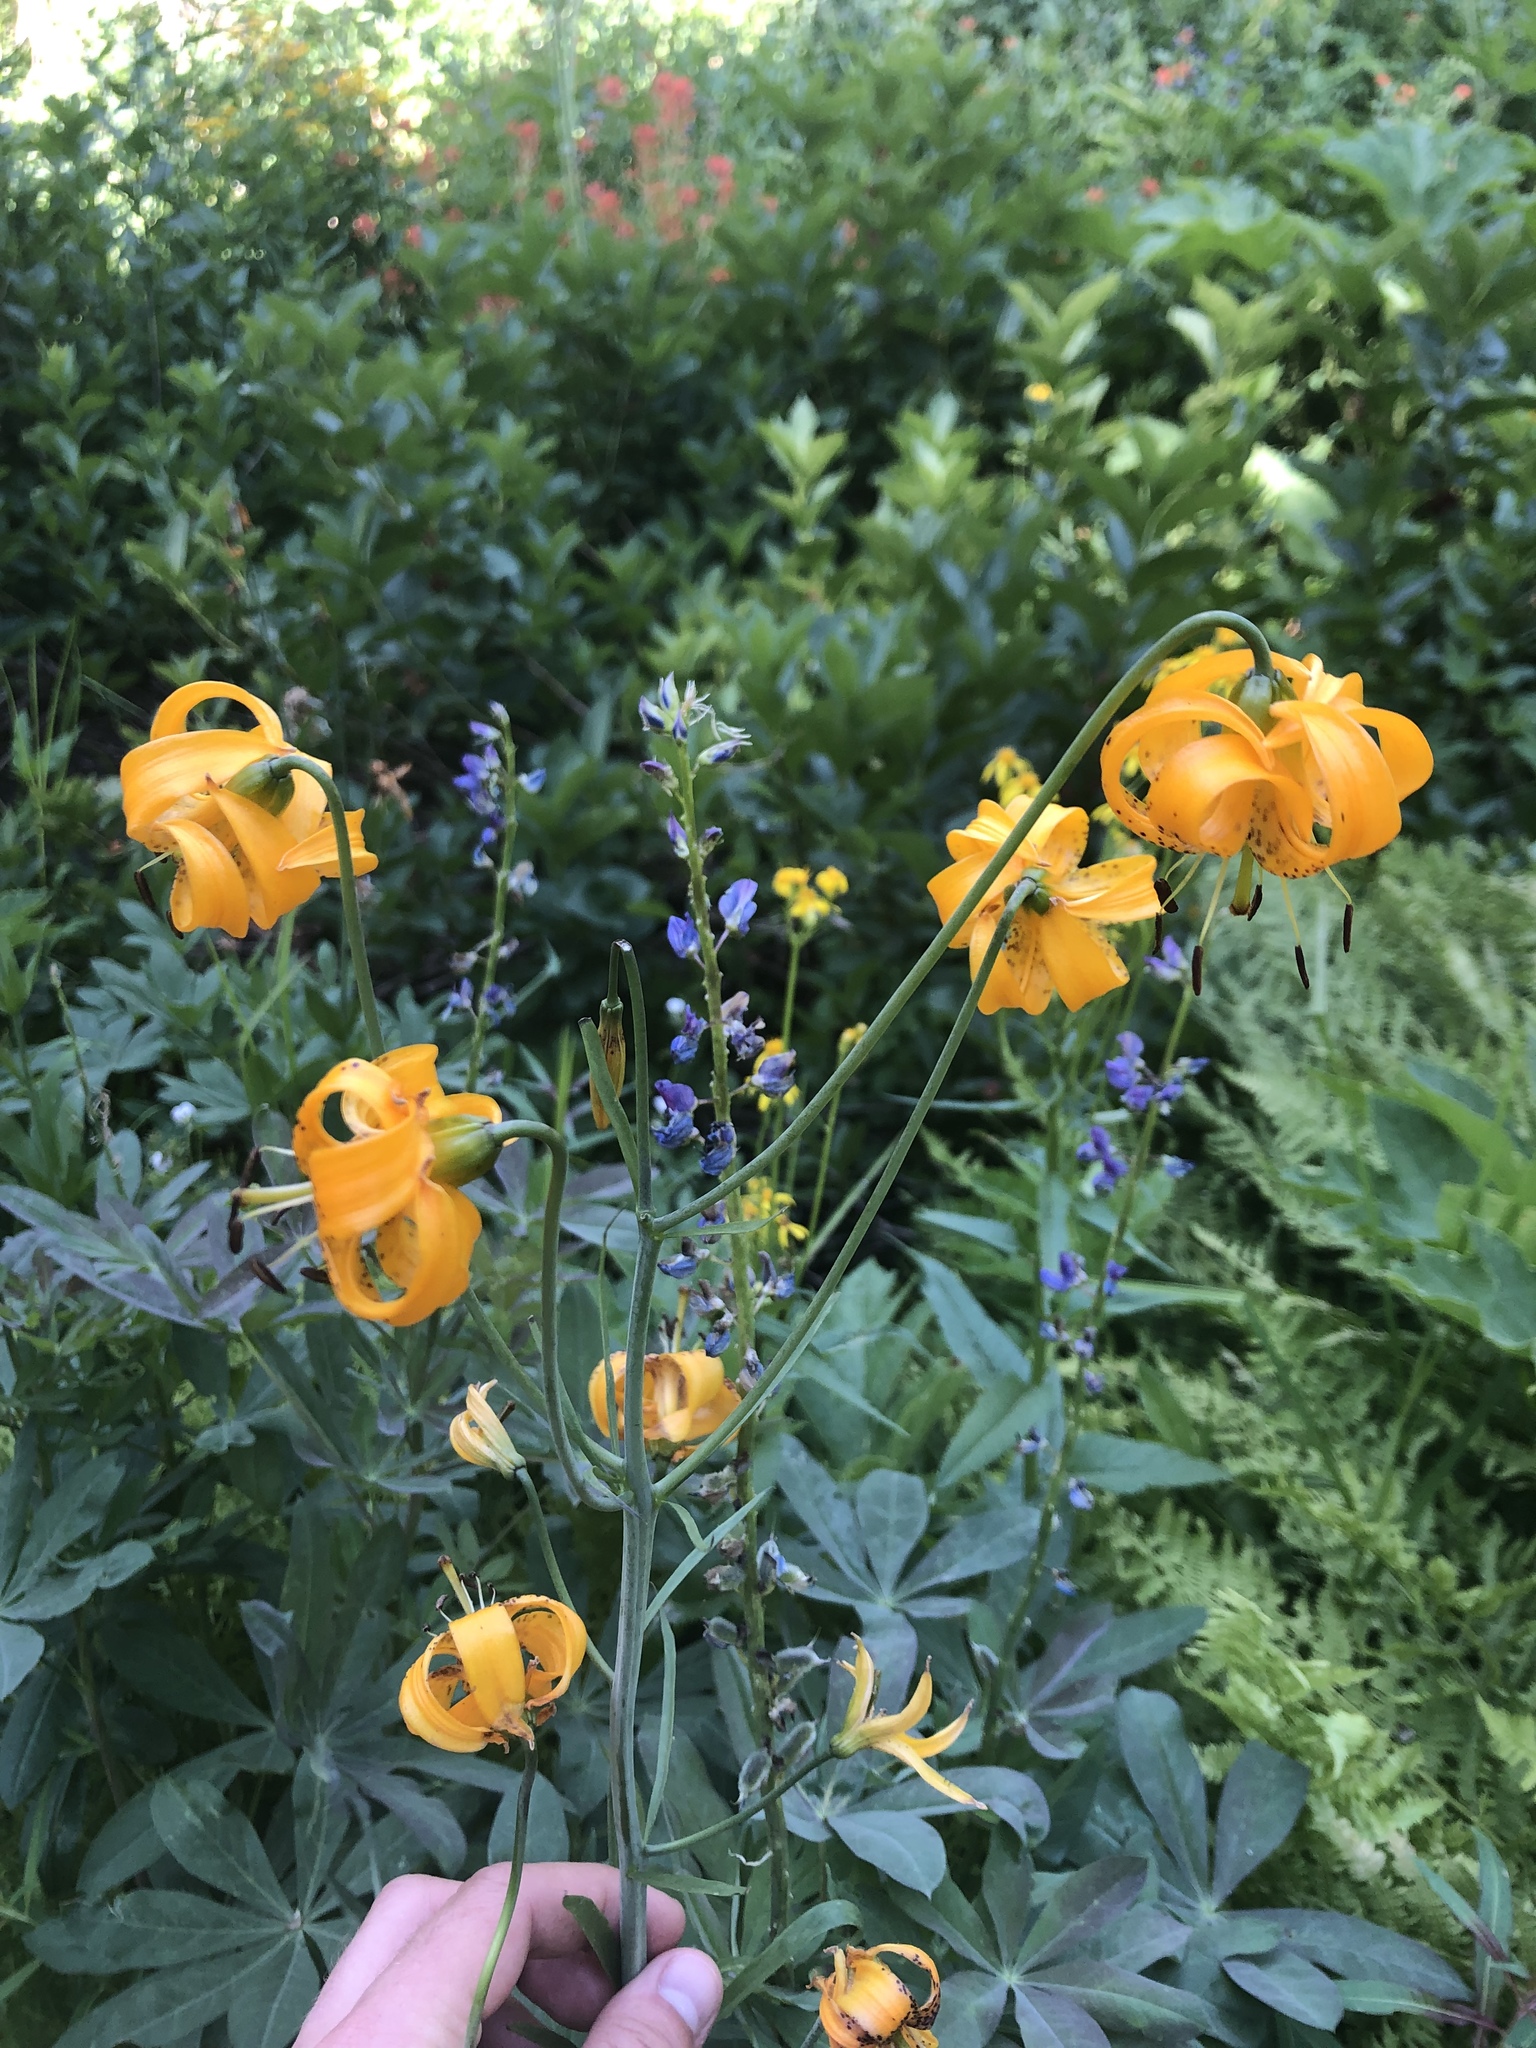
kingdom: Plantae
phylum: Tracheophyta
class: Liliopsida
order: Liliales
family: Liliaceae
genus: Lilium
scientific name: Lilium kelleyanum
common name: Kelley's lily
